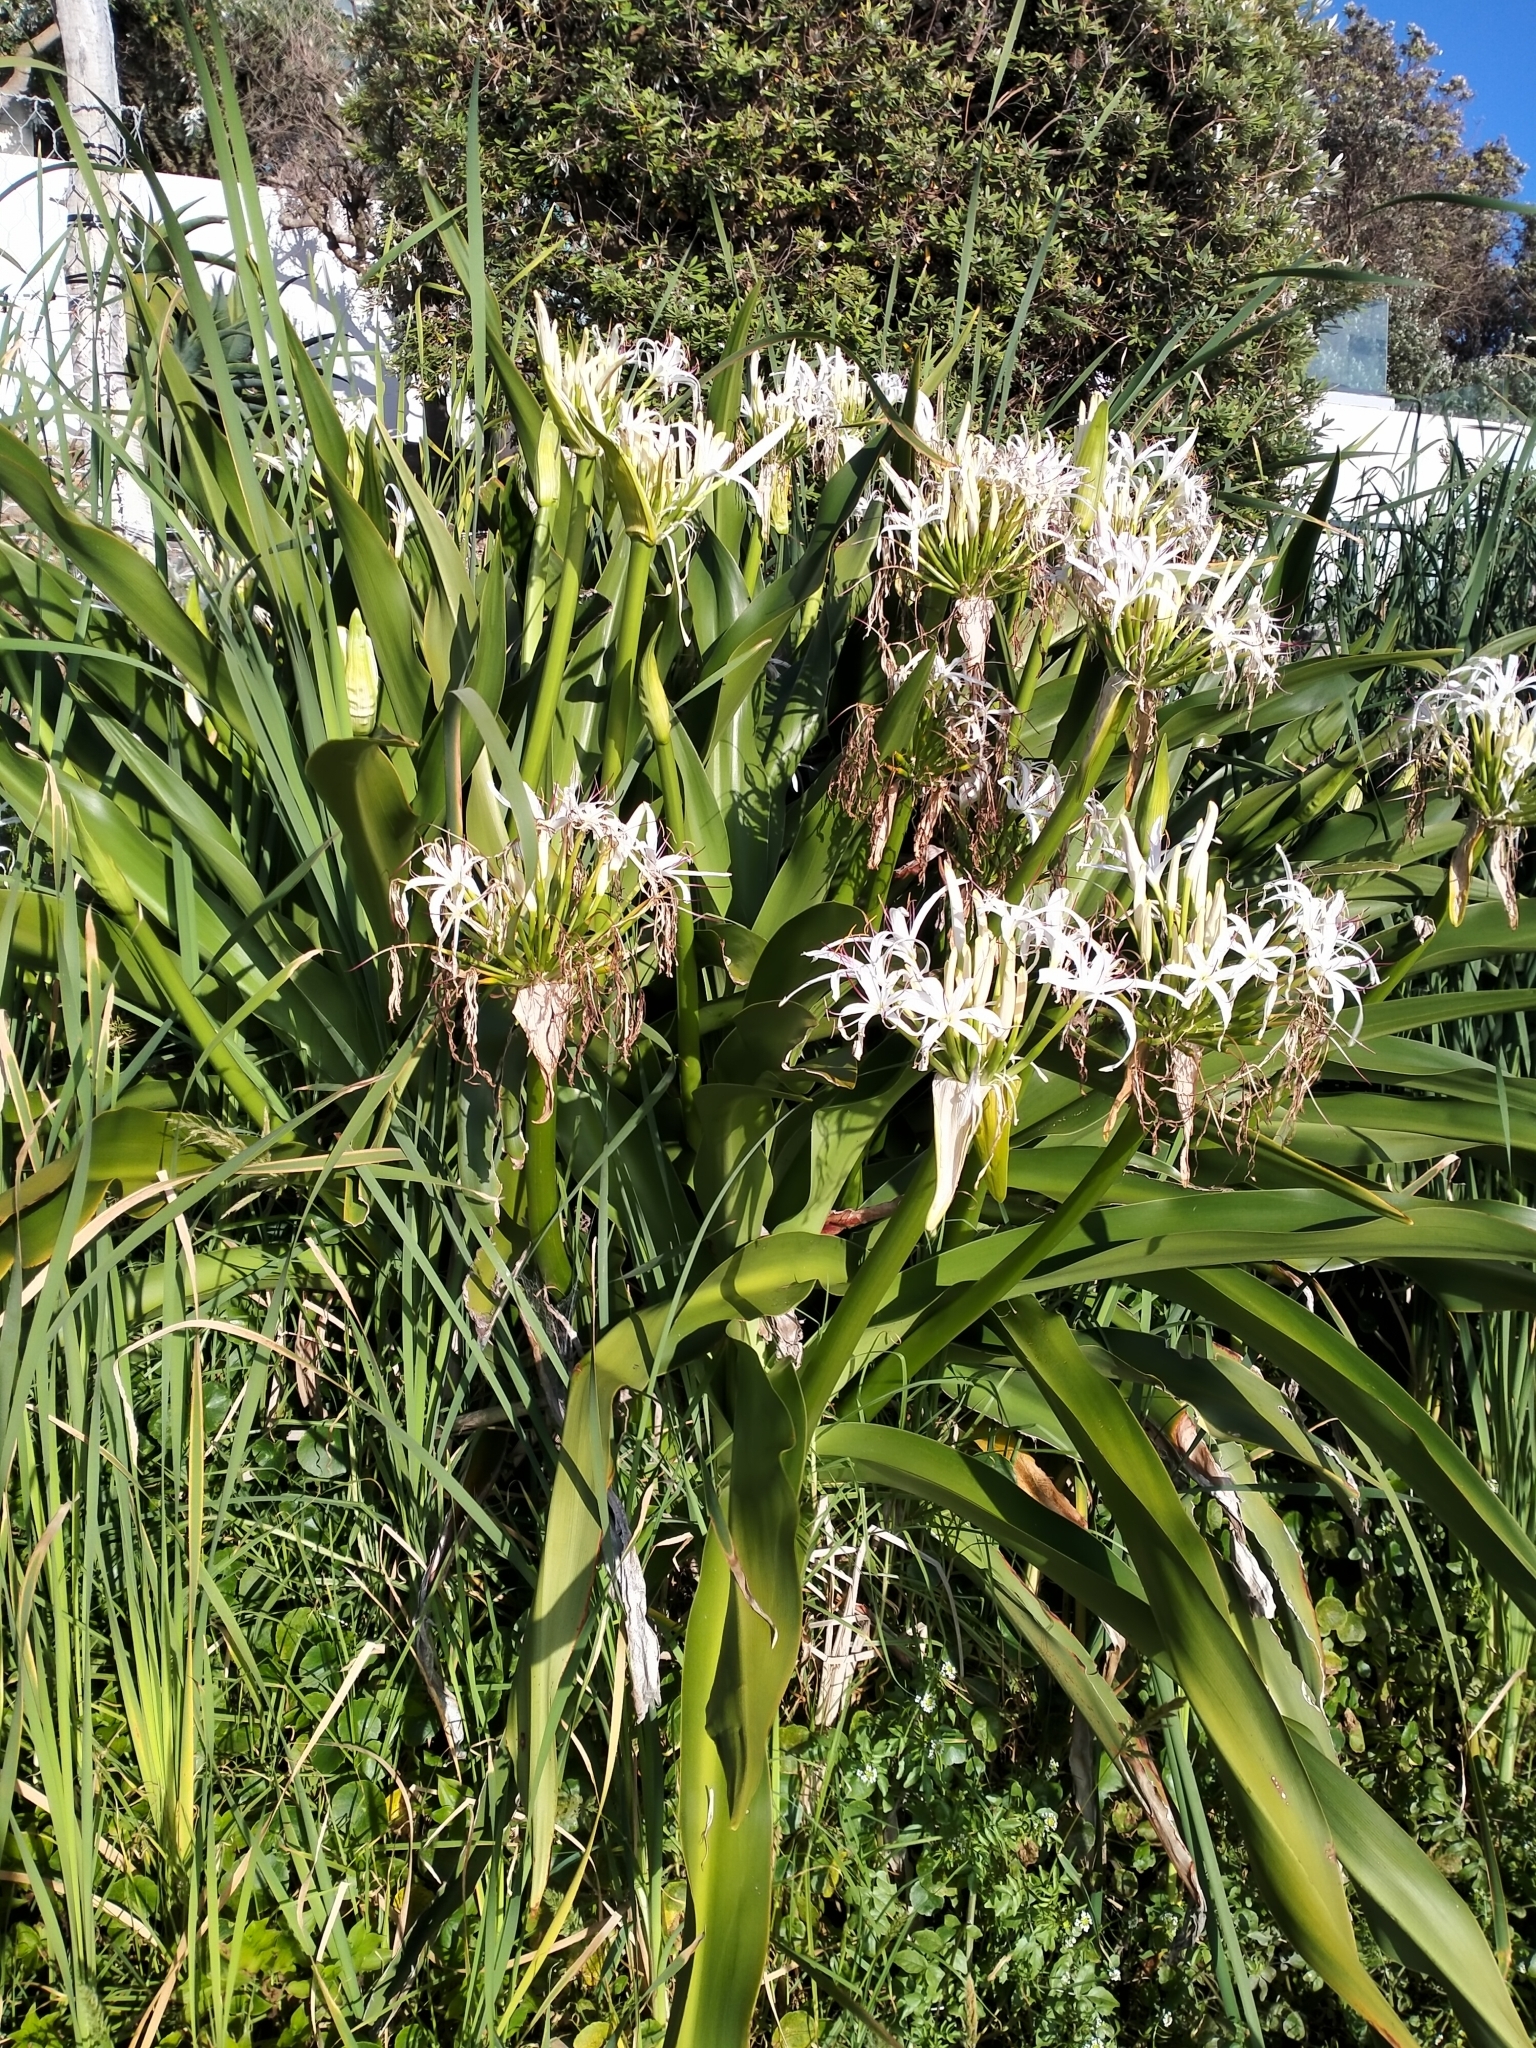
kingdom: Plantae
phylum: Tracheophyta
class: Liliopsida
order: Asparagales
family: Amaryllidaceae
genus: Crinum
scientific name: Crinum pedunculatum
